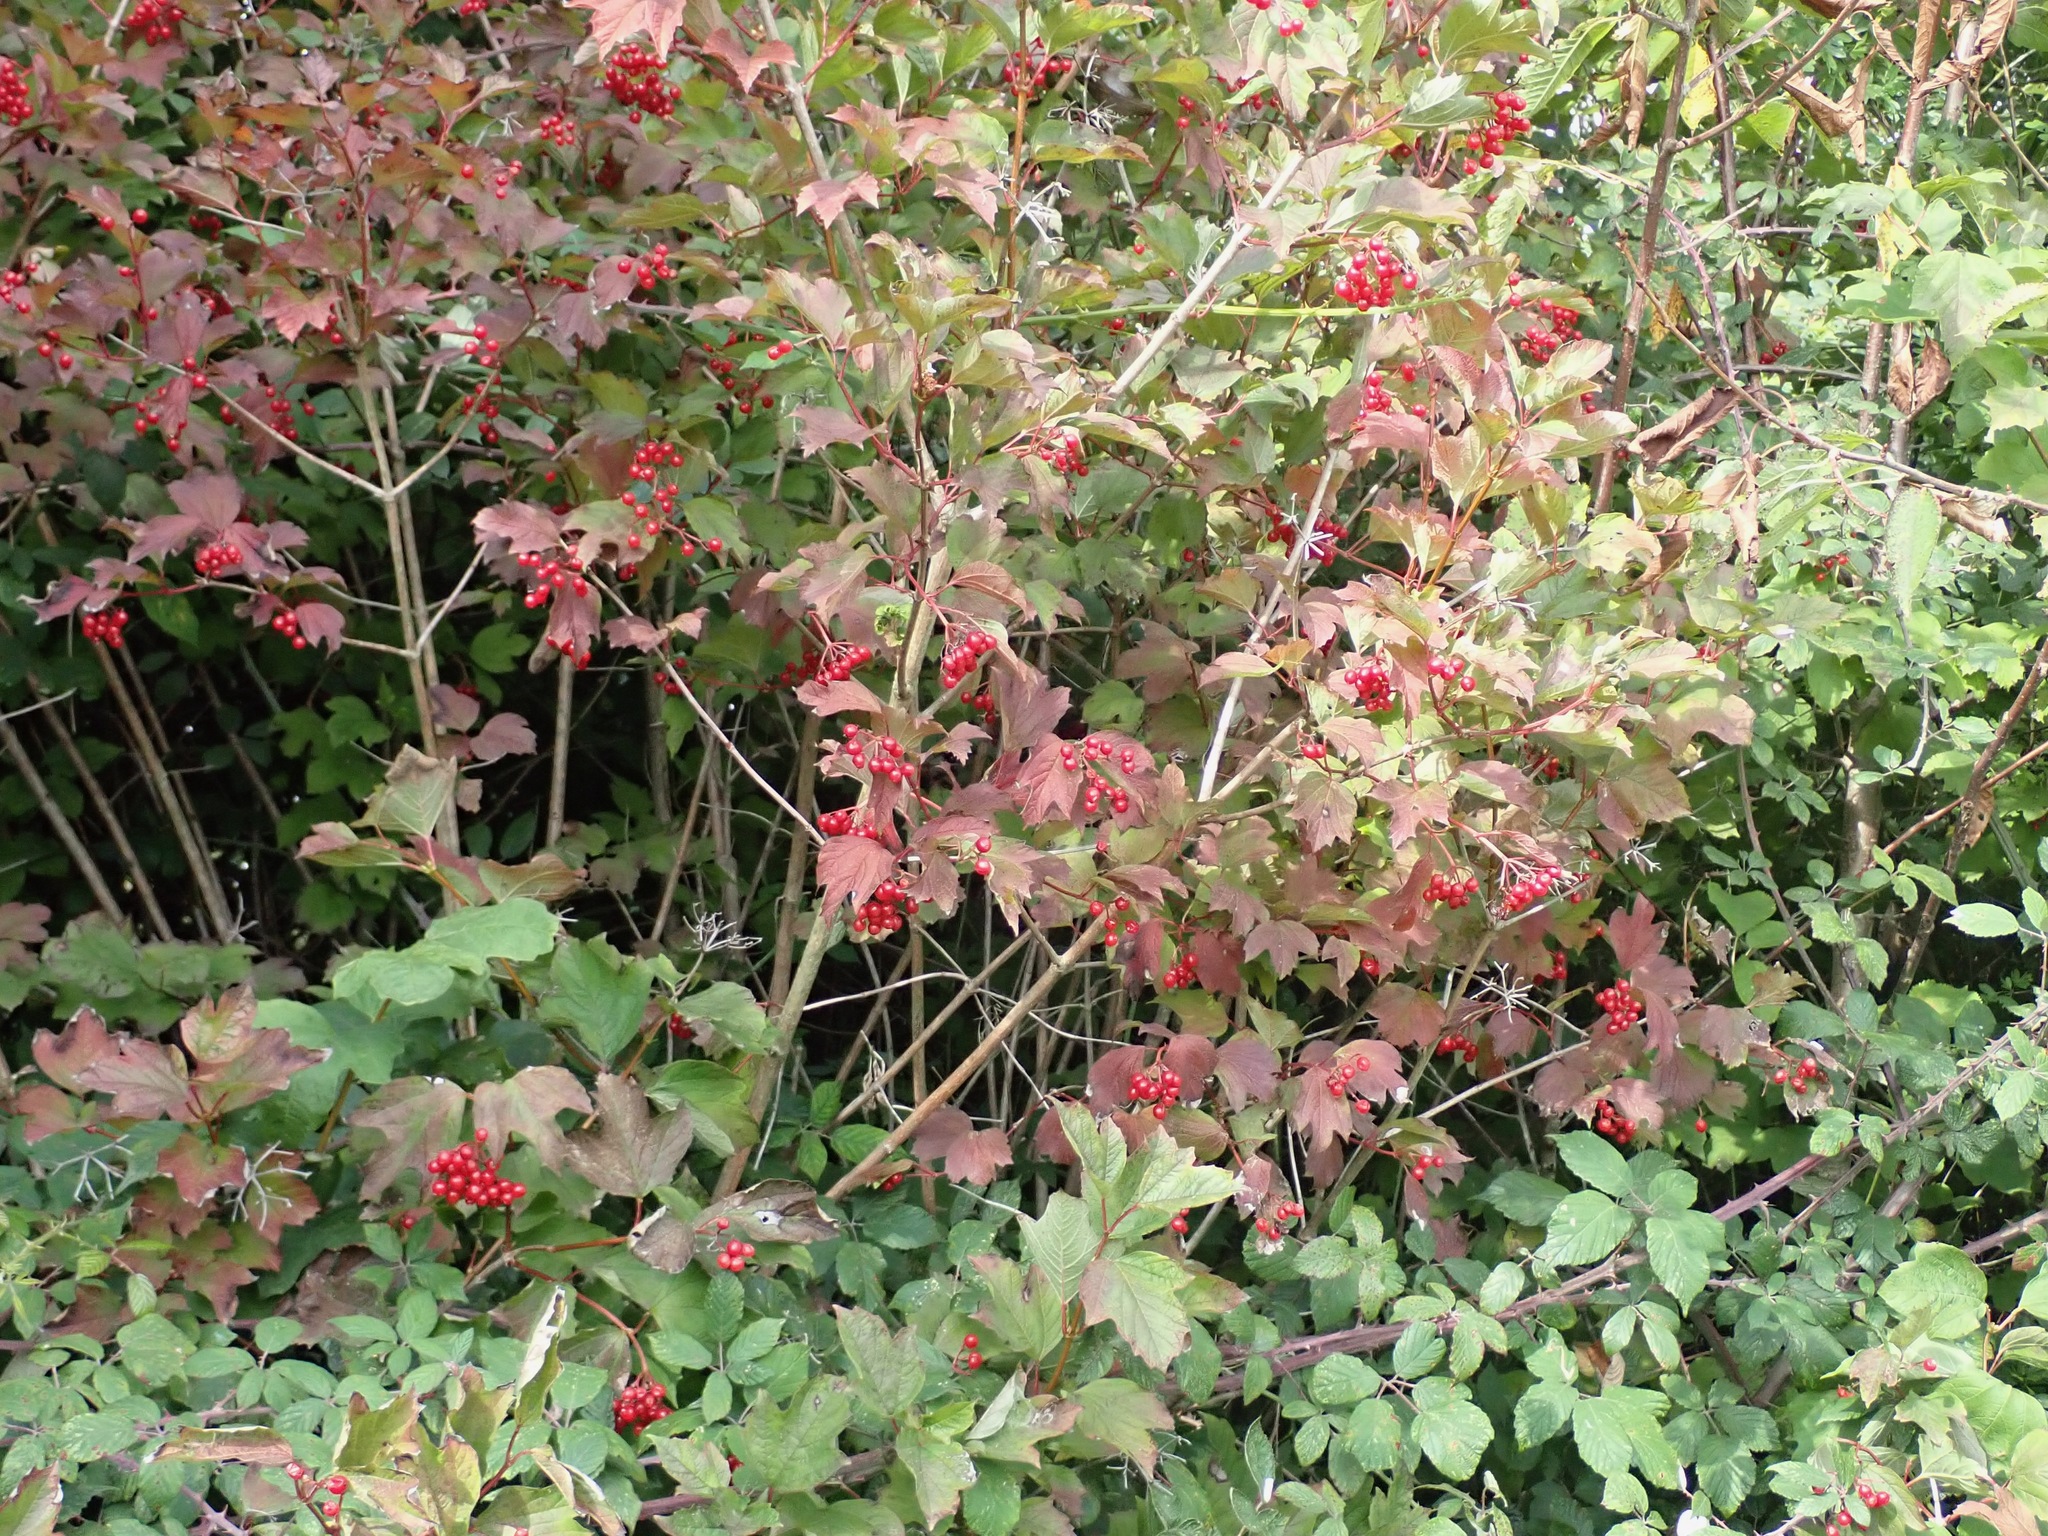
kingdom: Plantae
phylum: Tracheophyta
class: Magnoliopsida
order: Dipsacales
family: Viburnaceae
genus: Viburnum
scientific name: Viburnum opulus
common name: Guelder-rose
